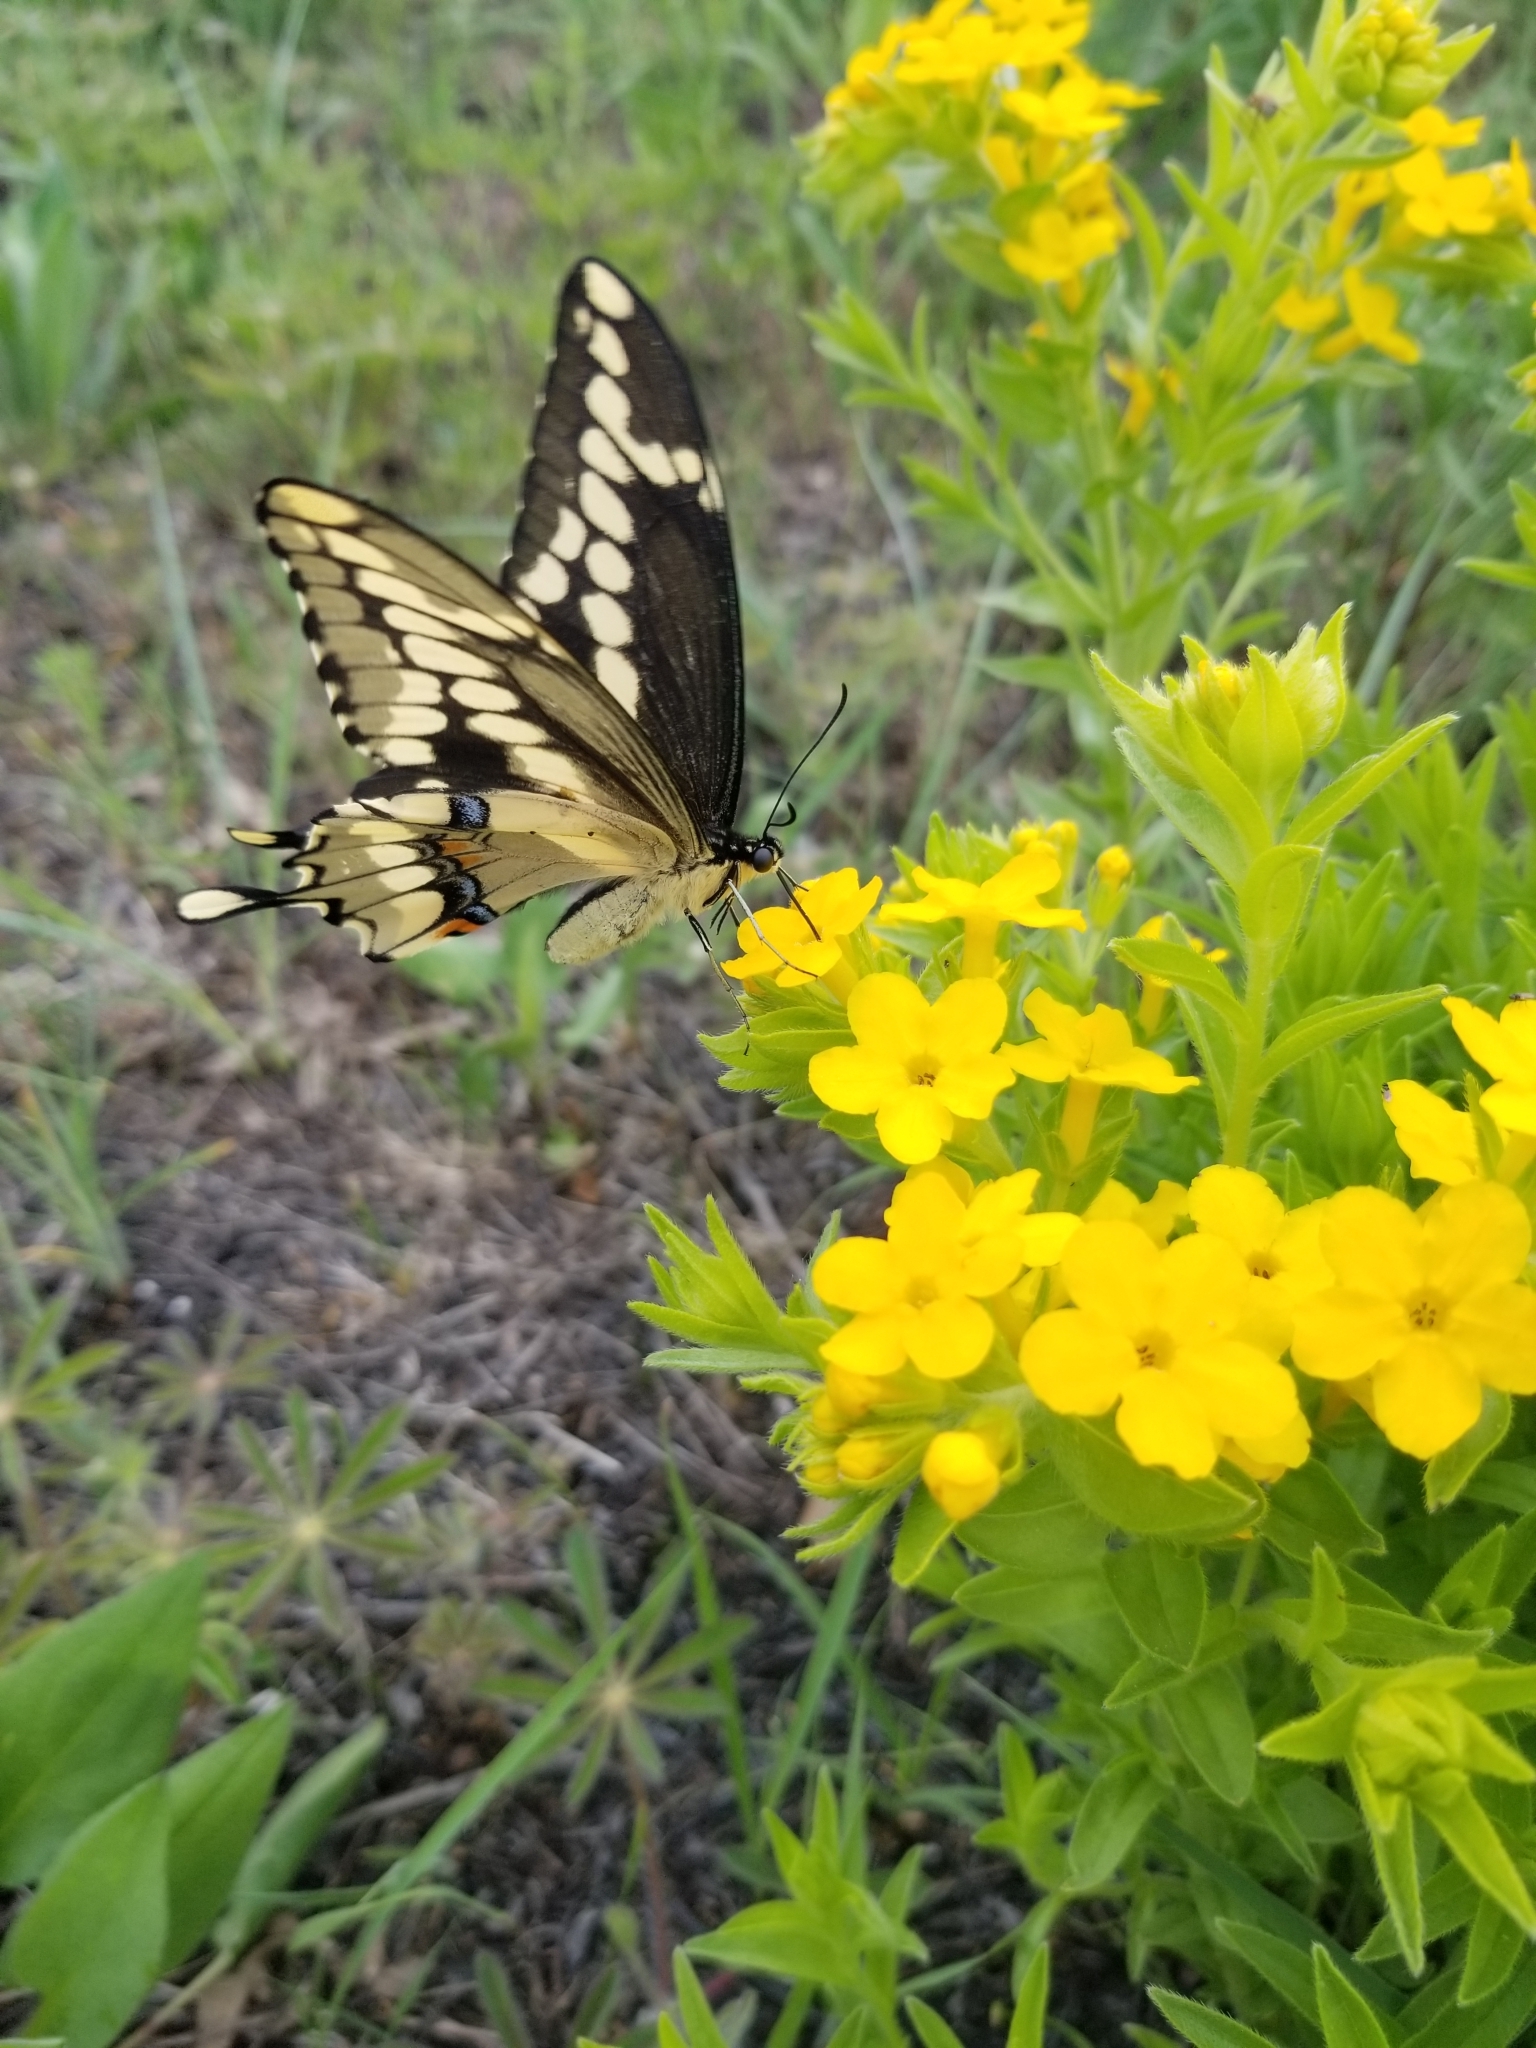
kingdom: Animalia
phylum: Arthropoda
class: Insecta
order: Lepidoptera
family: Papilionidae
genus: Papilio
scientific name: Papilio cresphontes
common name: Giant swallowtail
